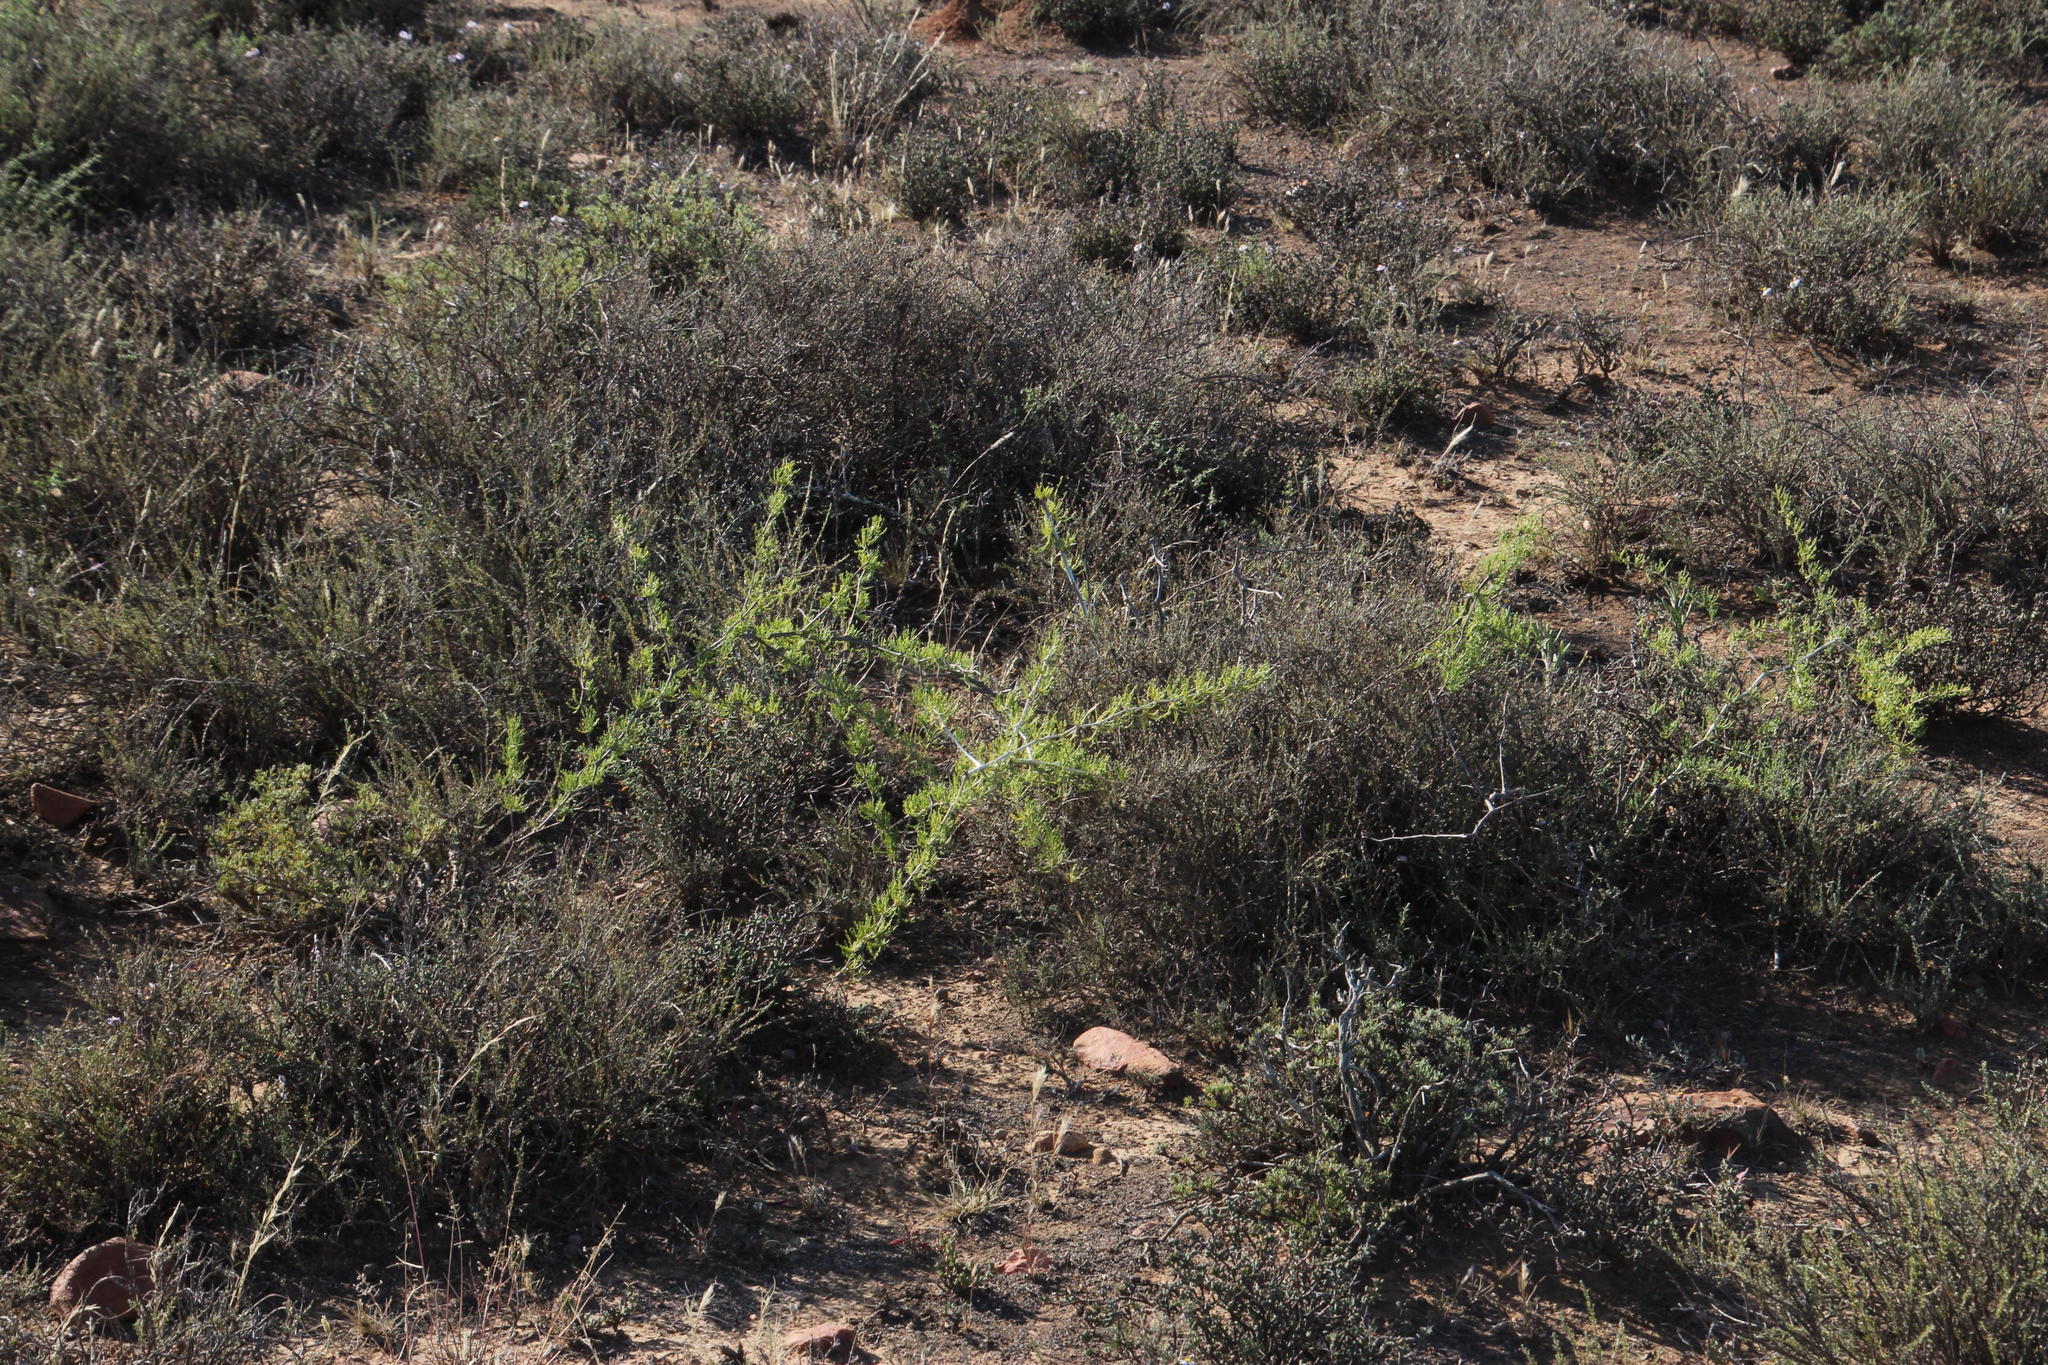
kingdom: Plantae
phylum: Tracheophyta
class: Liliopsida
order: Asparagales
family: Asparagaceae
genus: Asparagus
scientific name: Asparagus burchellii
